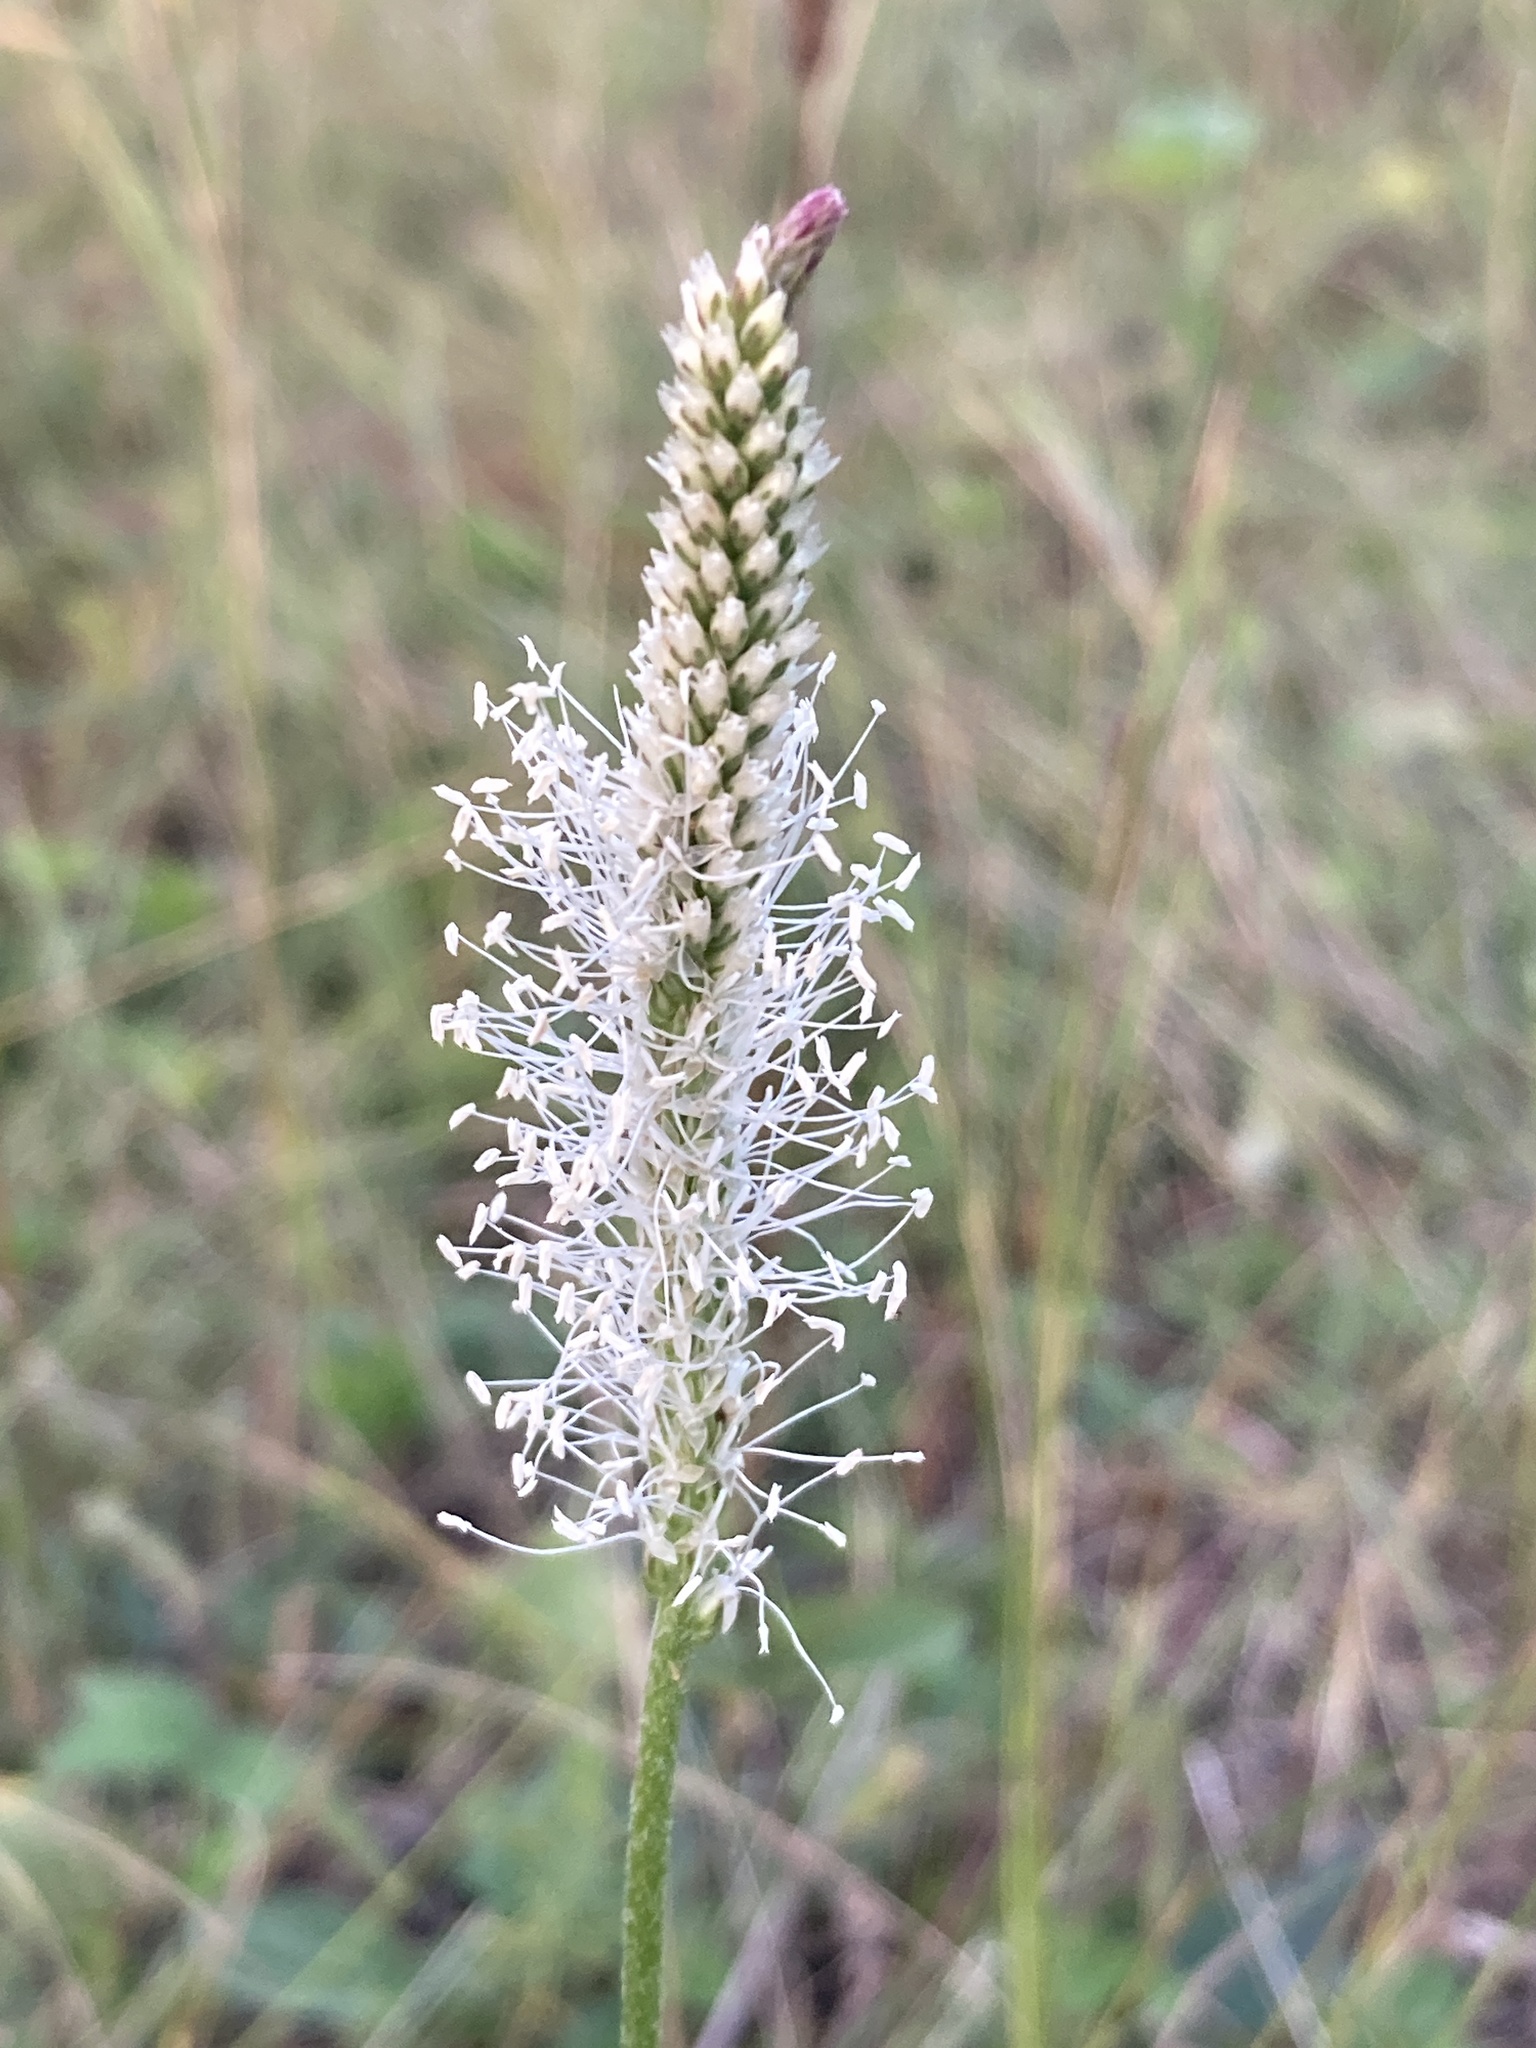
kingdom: Plantae
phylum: Tracheophyta
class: Magnoliopsida
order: Lamiales
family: Plantaginaceae
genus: Plantago
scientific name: Plantago urvillei
